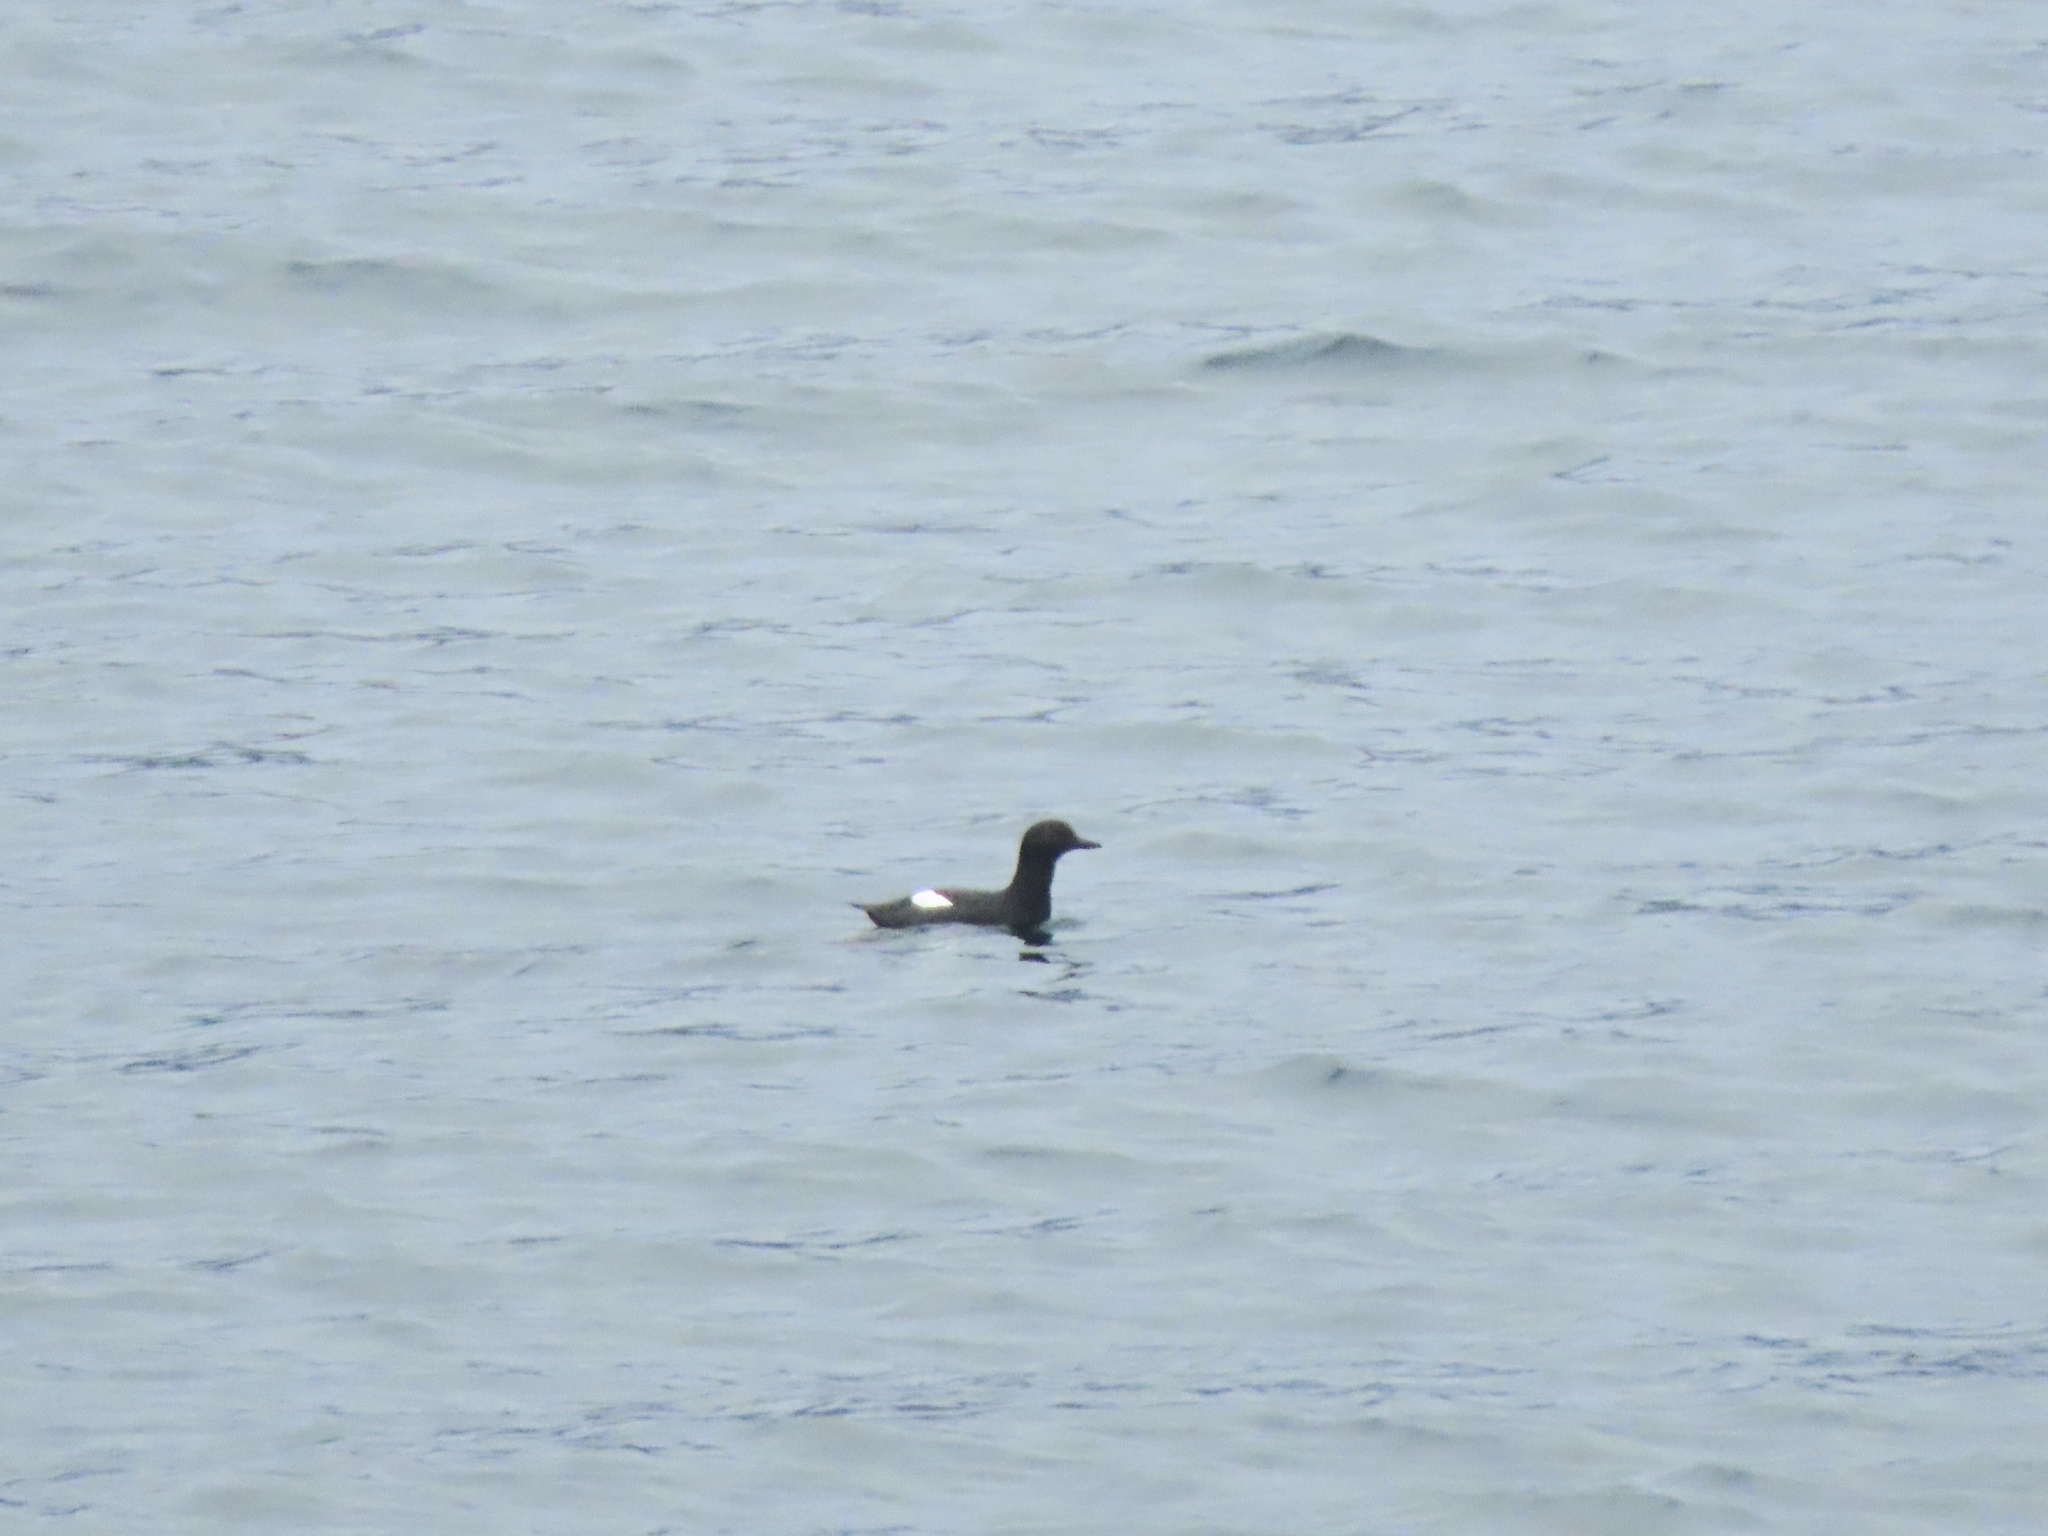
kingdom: Animalia
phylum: Chordata
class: Aves
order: Charadriiformes
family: Alcidae
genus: Cepphus
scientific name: Cepphus columba
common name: Pigeon guillemot
